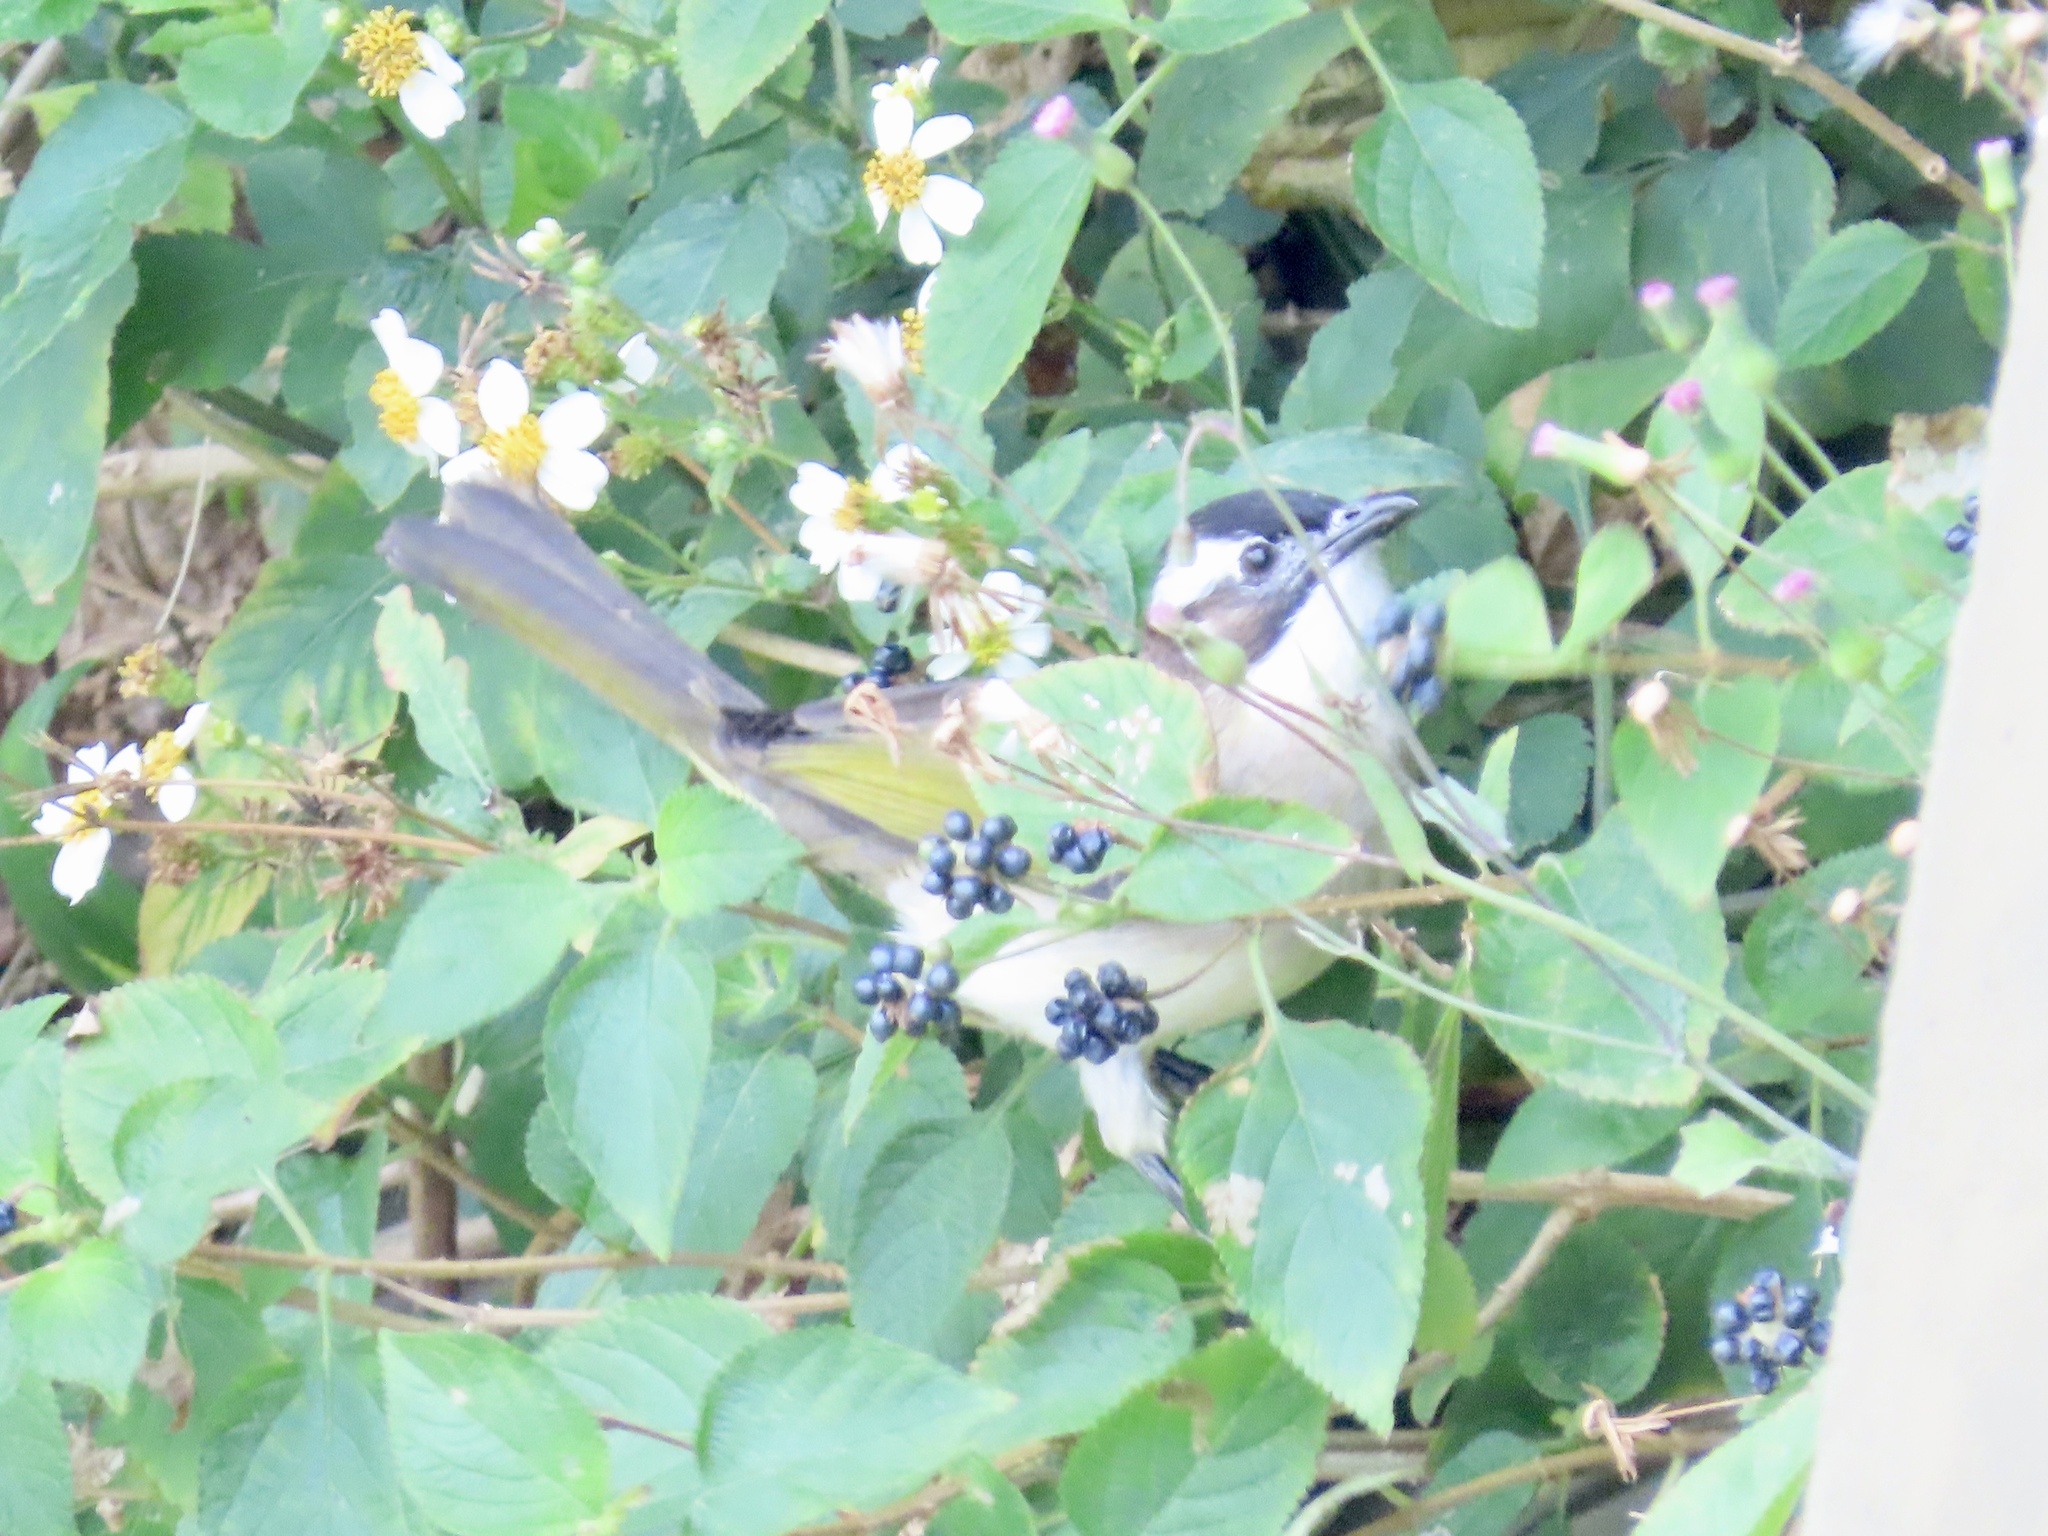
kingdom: Animalia
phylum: Chordata
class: Aves
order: Passeriformes
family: Pycnonotidae
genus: Pycnonotus
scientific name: Pycnonotus sinensis
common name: Light-vented bulbul
